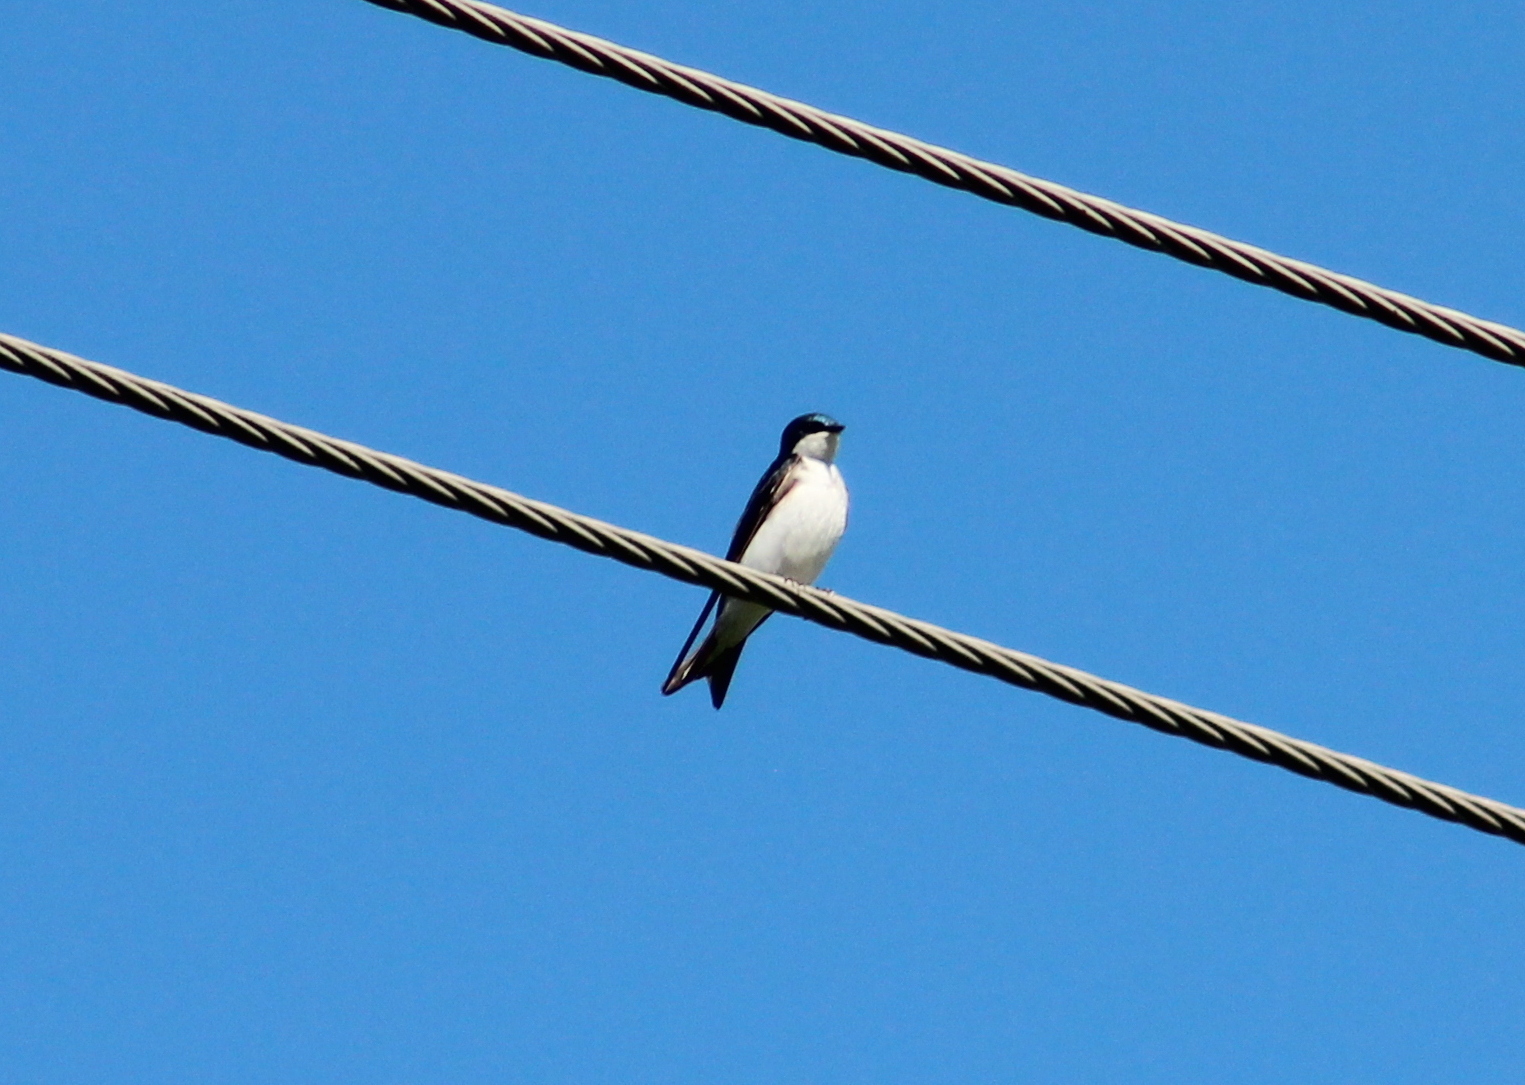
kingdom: Animalia
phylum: Chordata
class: Aves
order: Passeriformes
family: Hirundinidae
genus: Tachycineta
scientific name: Tachycineta bicolor
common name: Tree swallow
